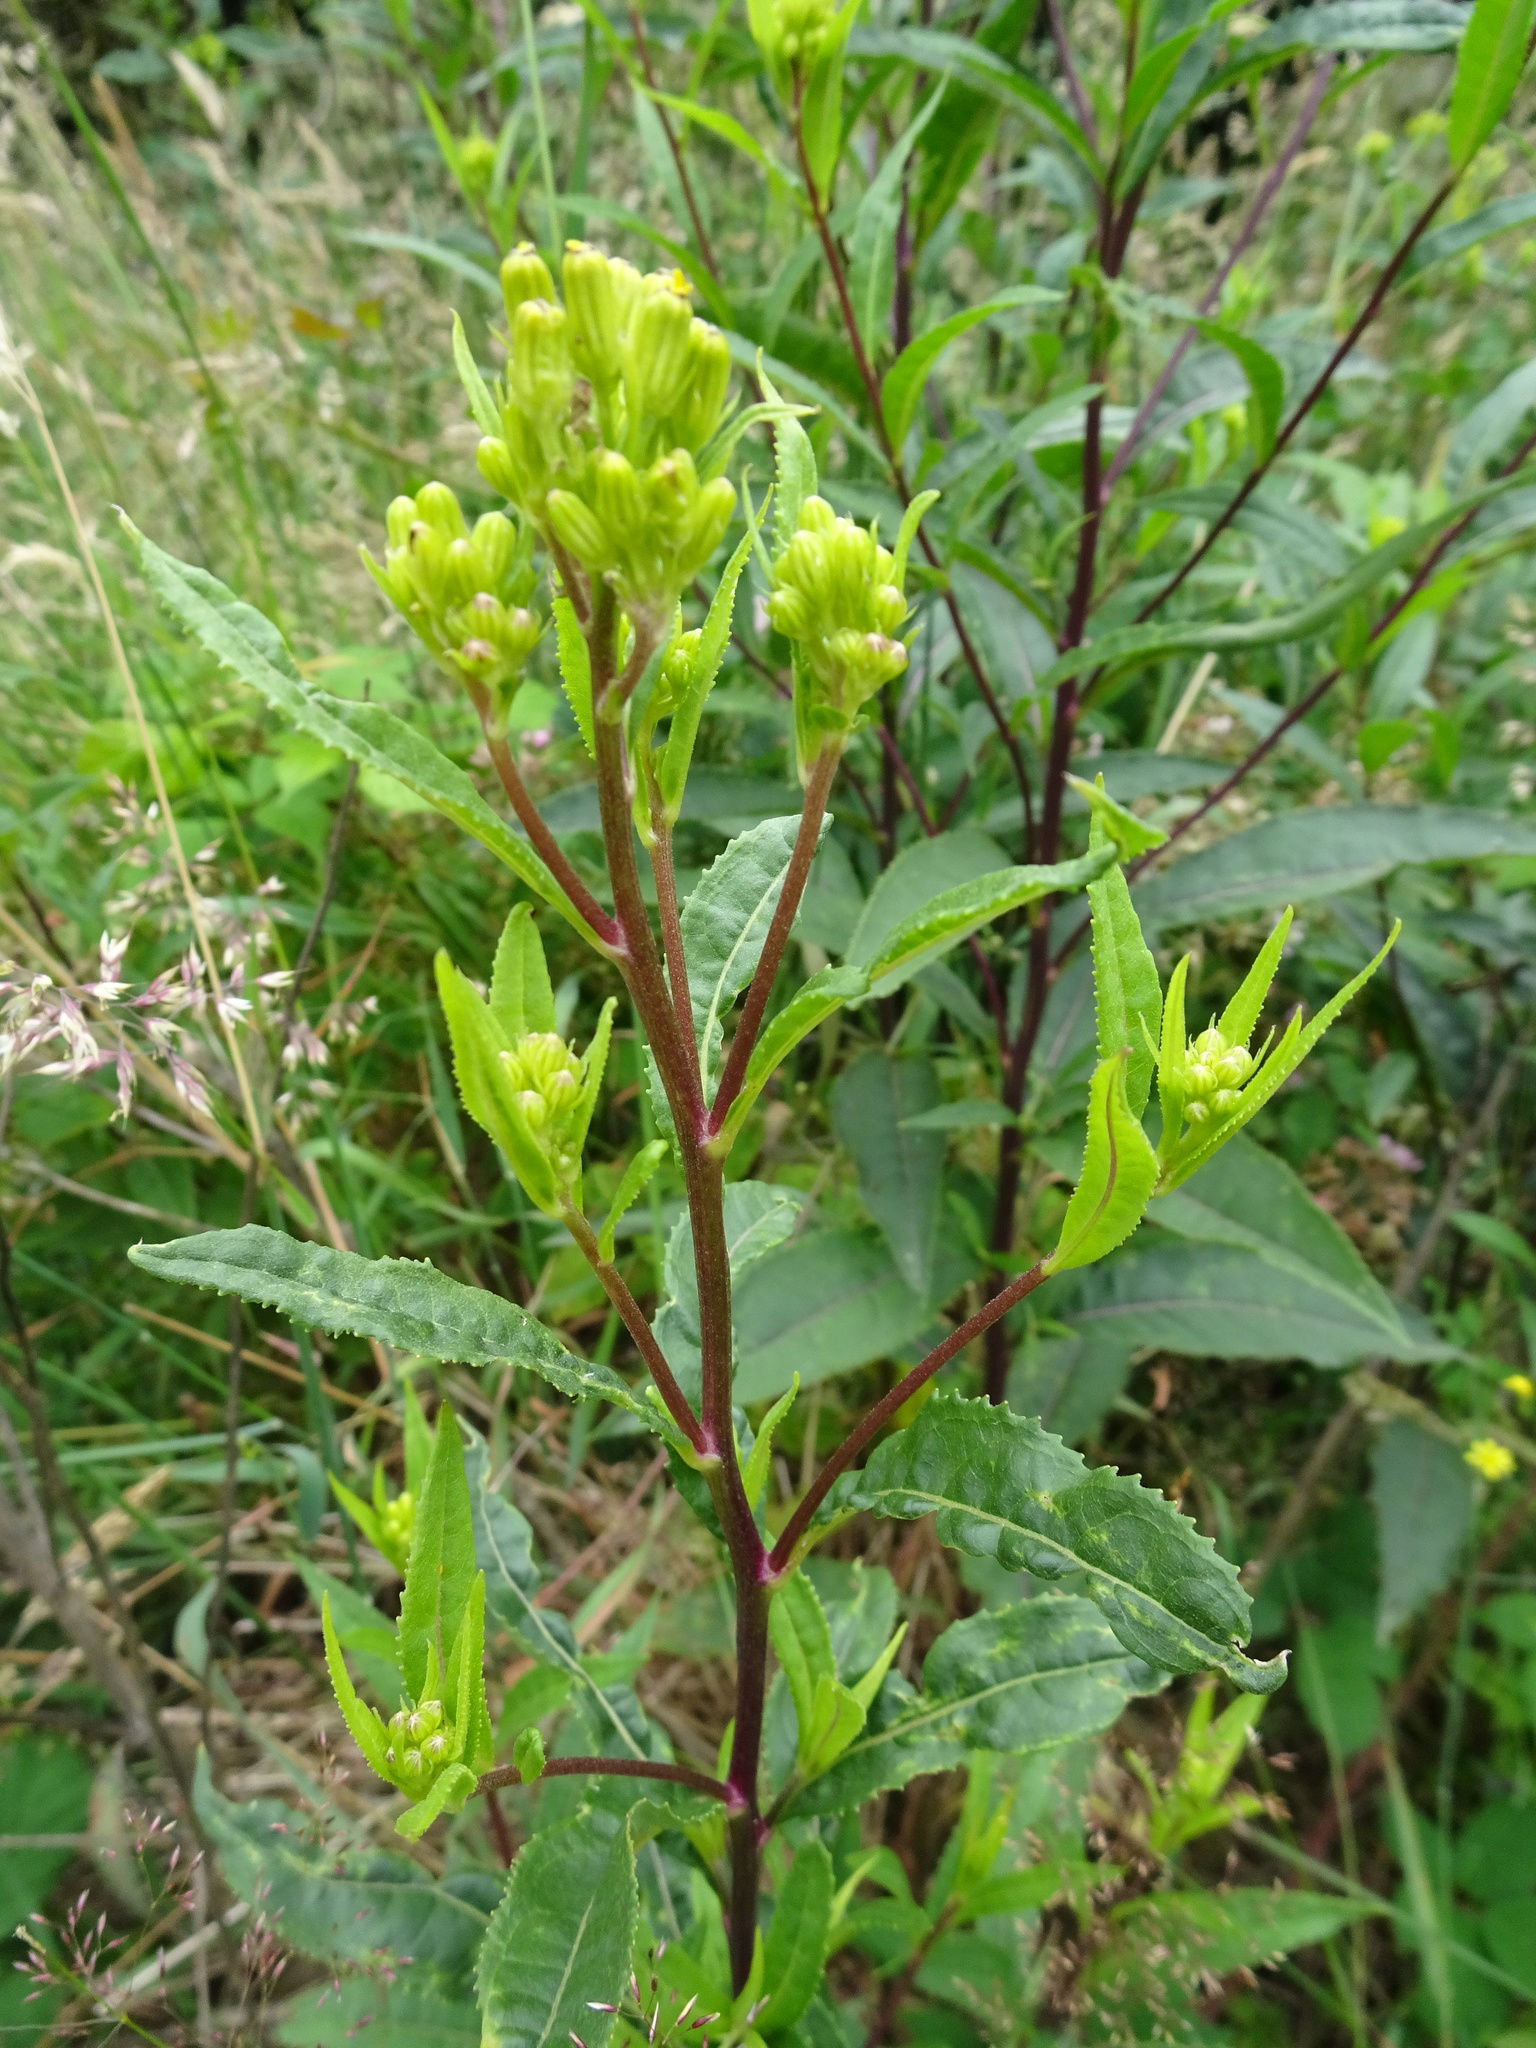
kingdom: Plantae
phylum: Tracheophyta
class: Magnoliopsida
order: Asterales
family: Asteraceae
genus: Senecio
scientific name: Senecio ovatus
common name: Wood ragwort
